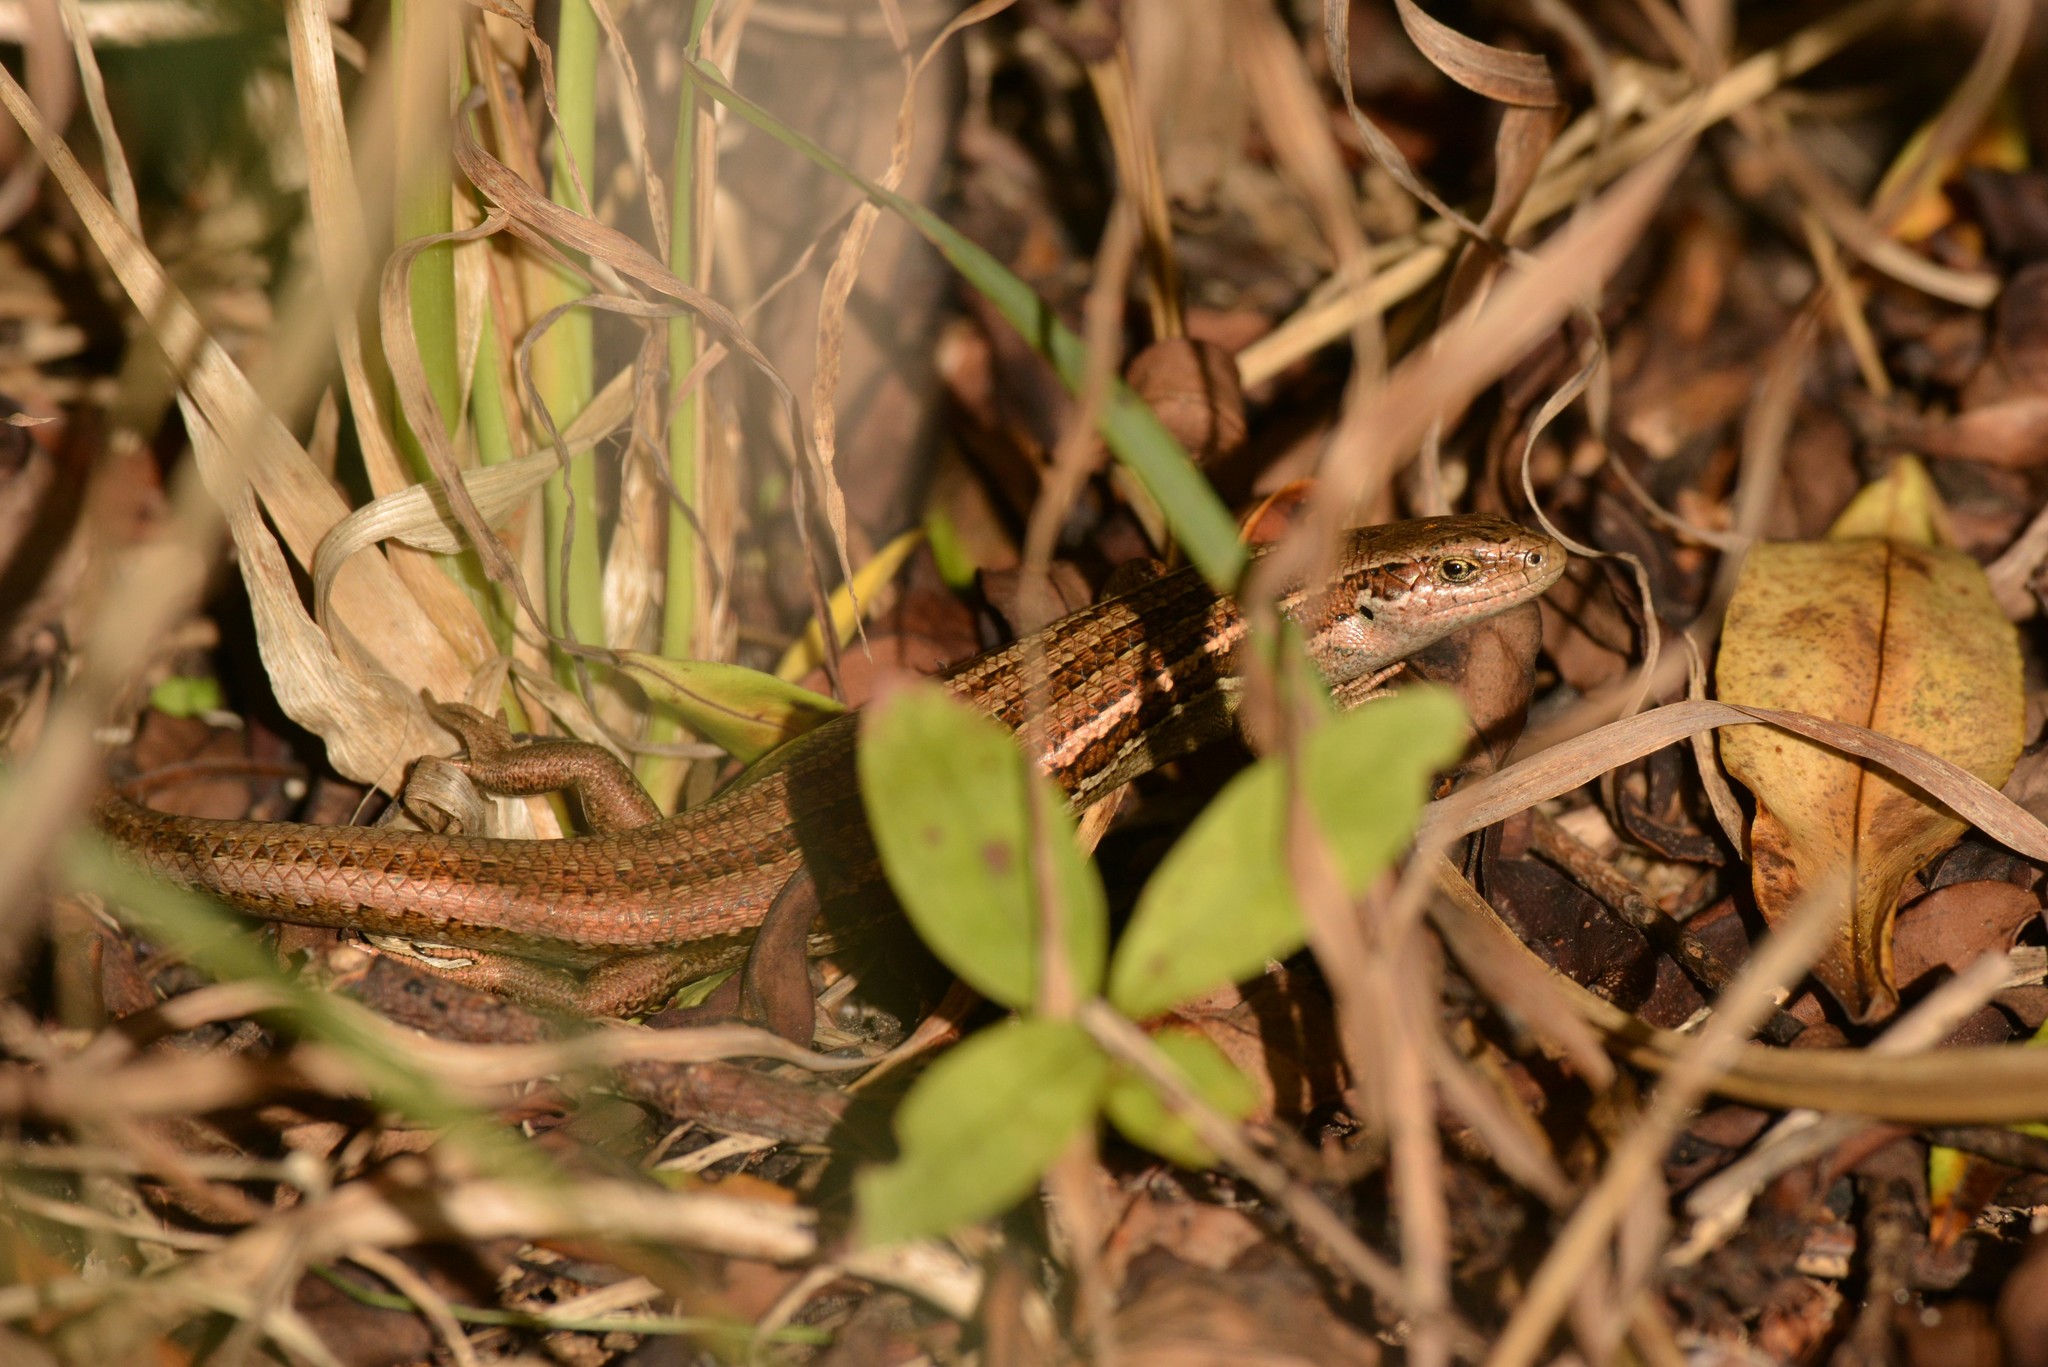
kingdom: Animalia
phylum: Chordata
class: Squamata
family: Scincidae
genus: Oligosoma
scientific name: Oligosoma polychroma
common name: Common new zealand skink
